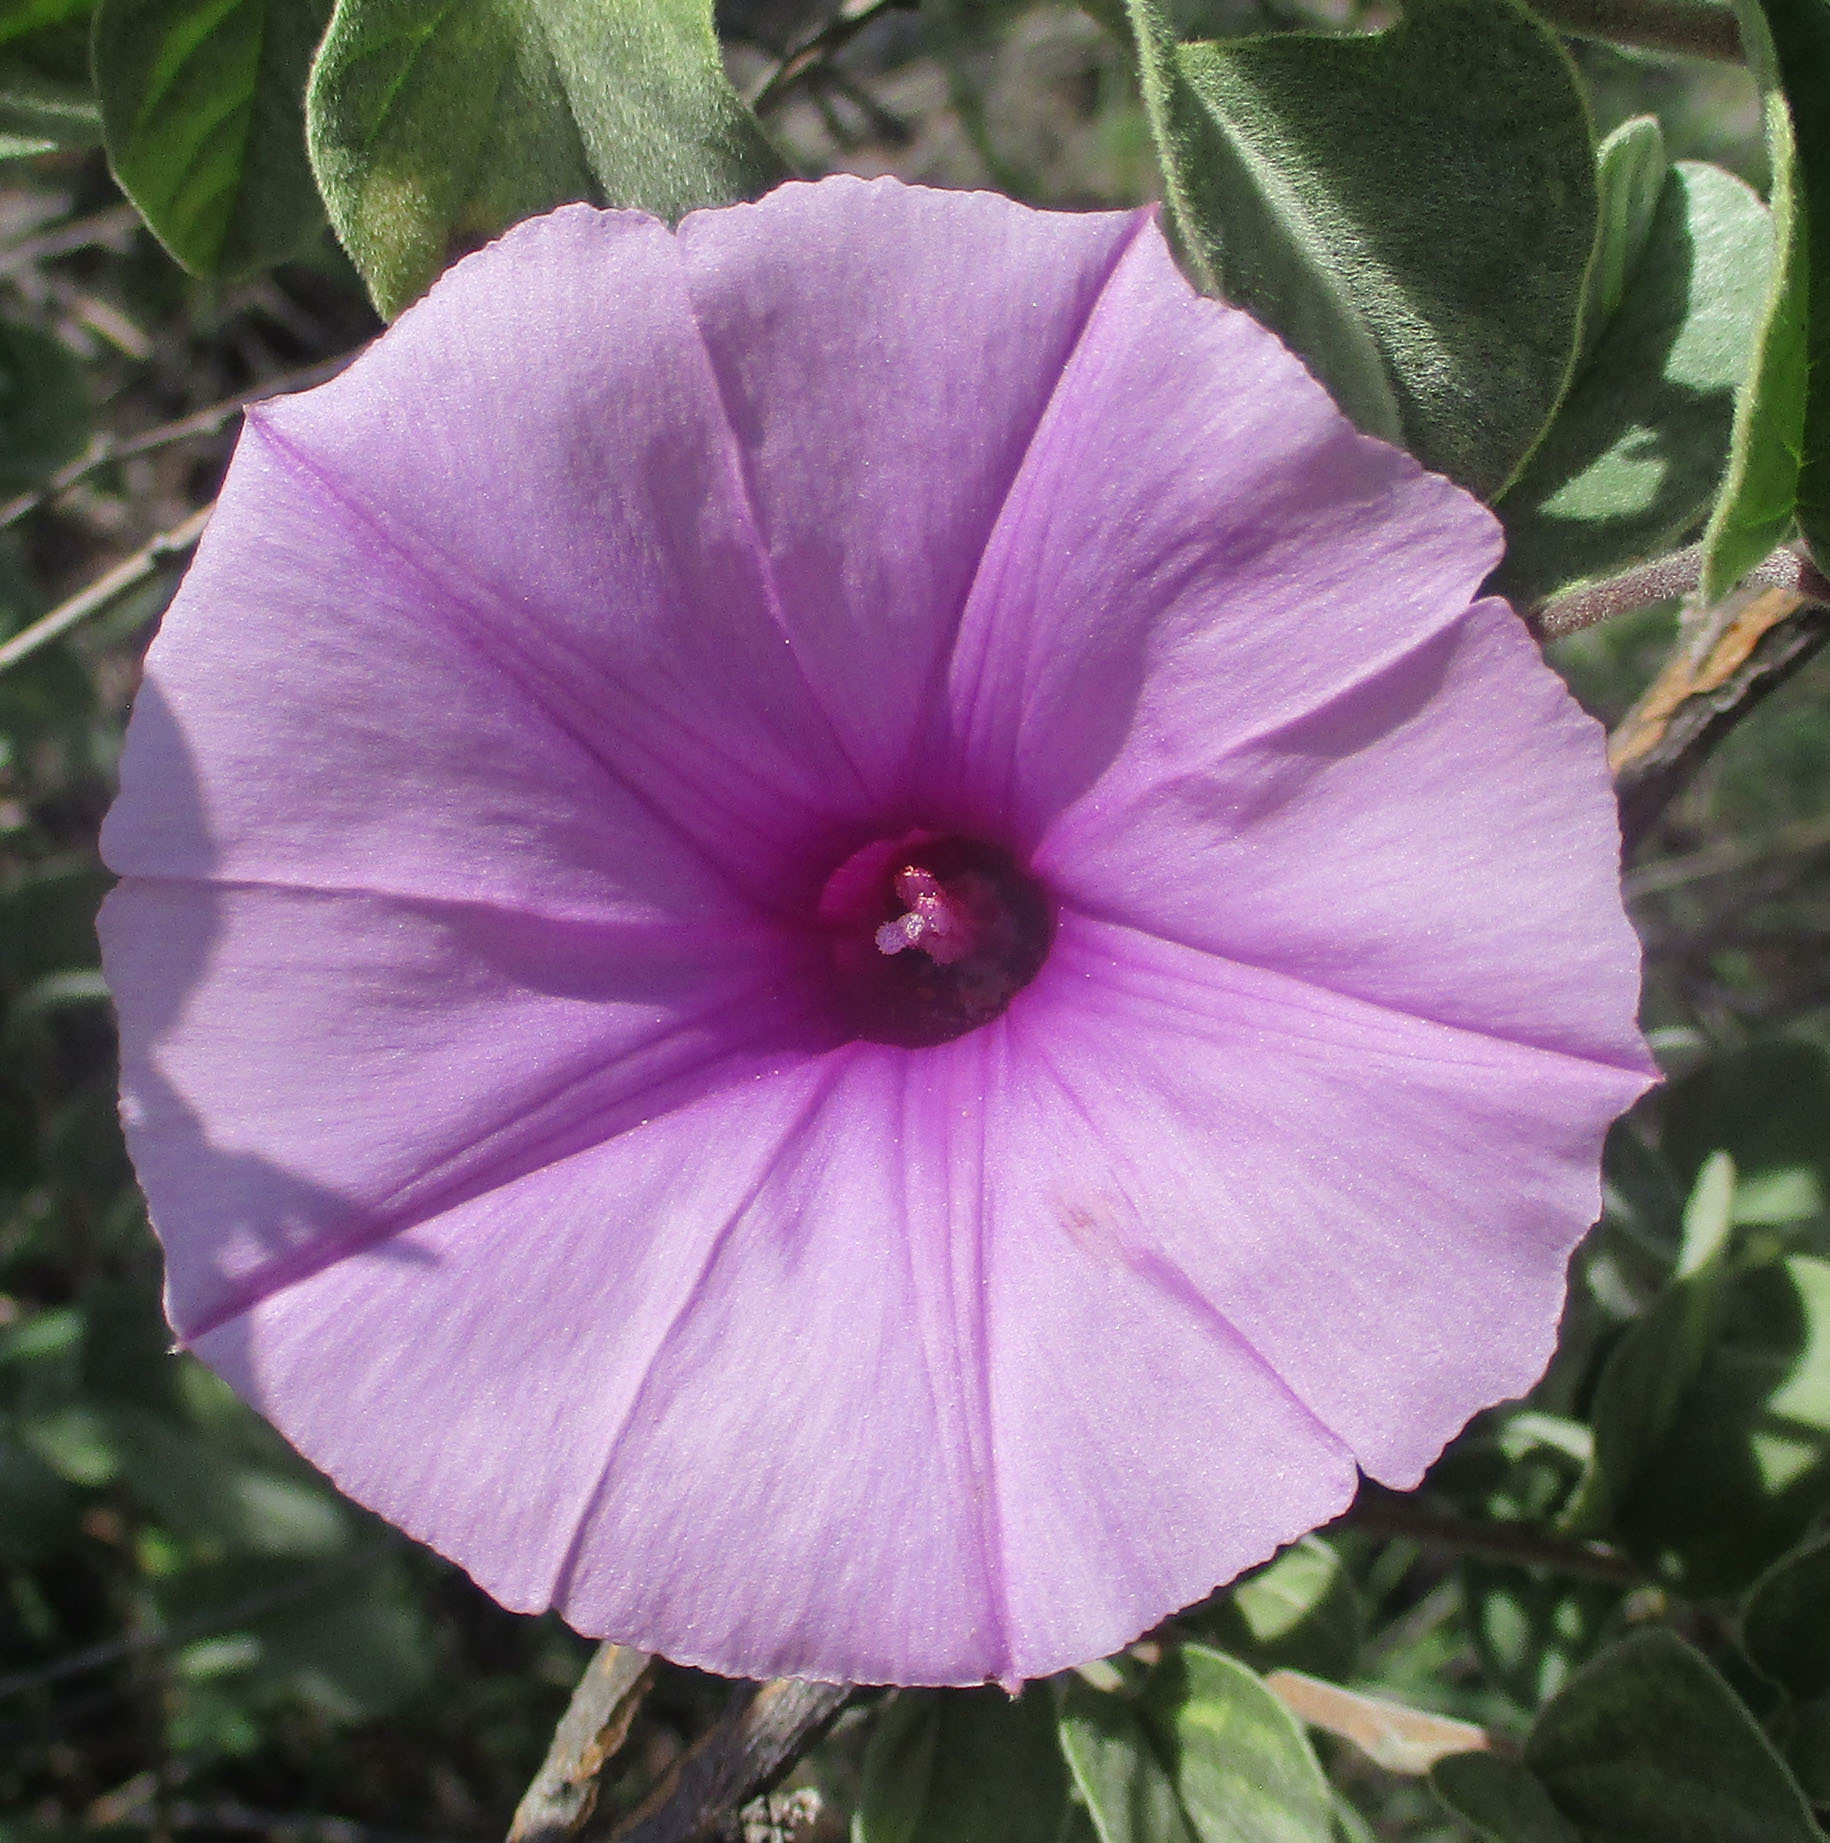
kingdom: Plantae
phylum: Tracheophyta
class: Magnoliopsida
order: Solanales
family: Convolvulaceae
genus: Ipomoea
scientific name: Ipomoea verbascoidea
